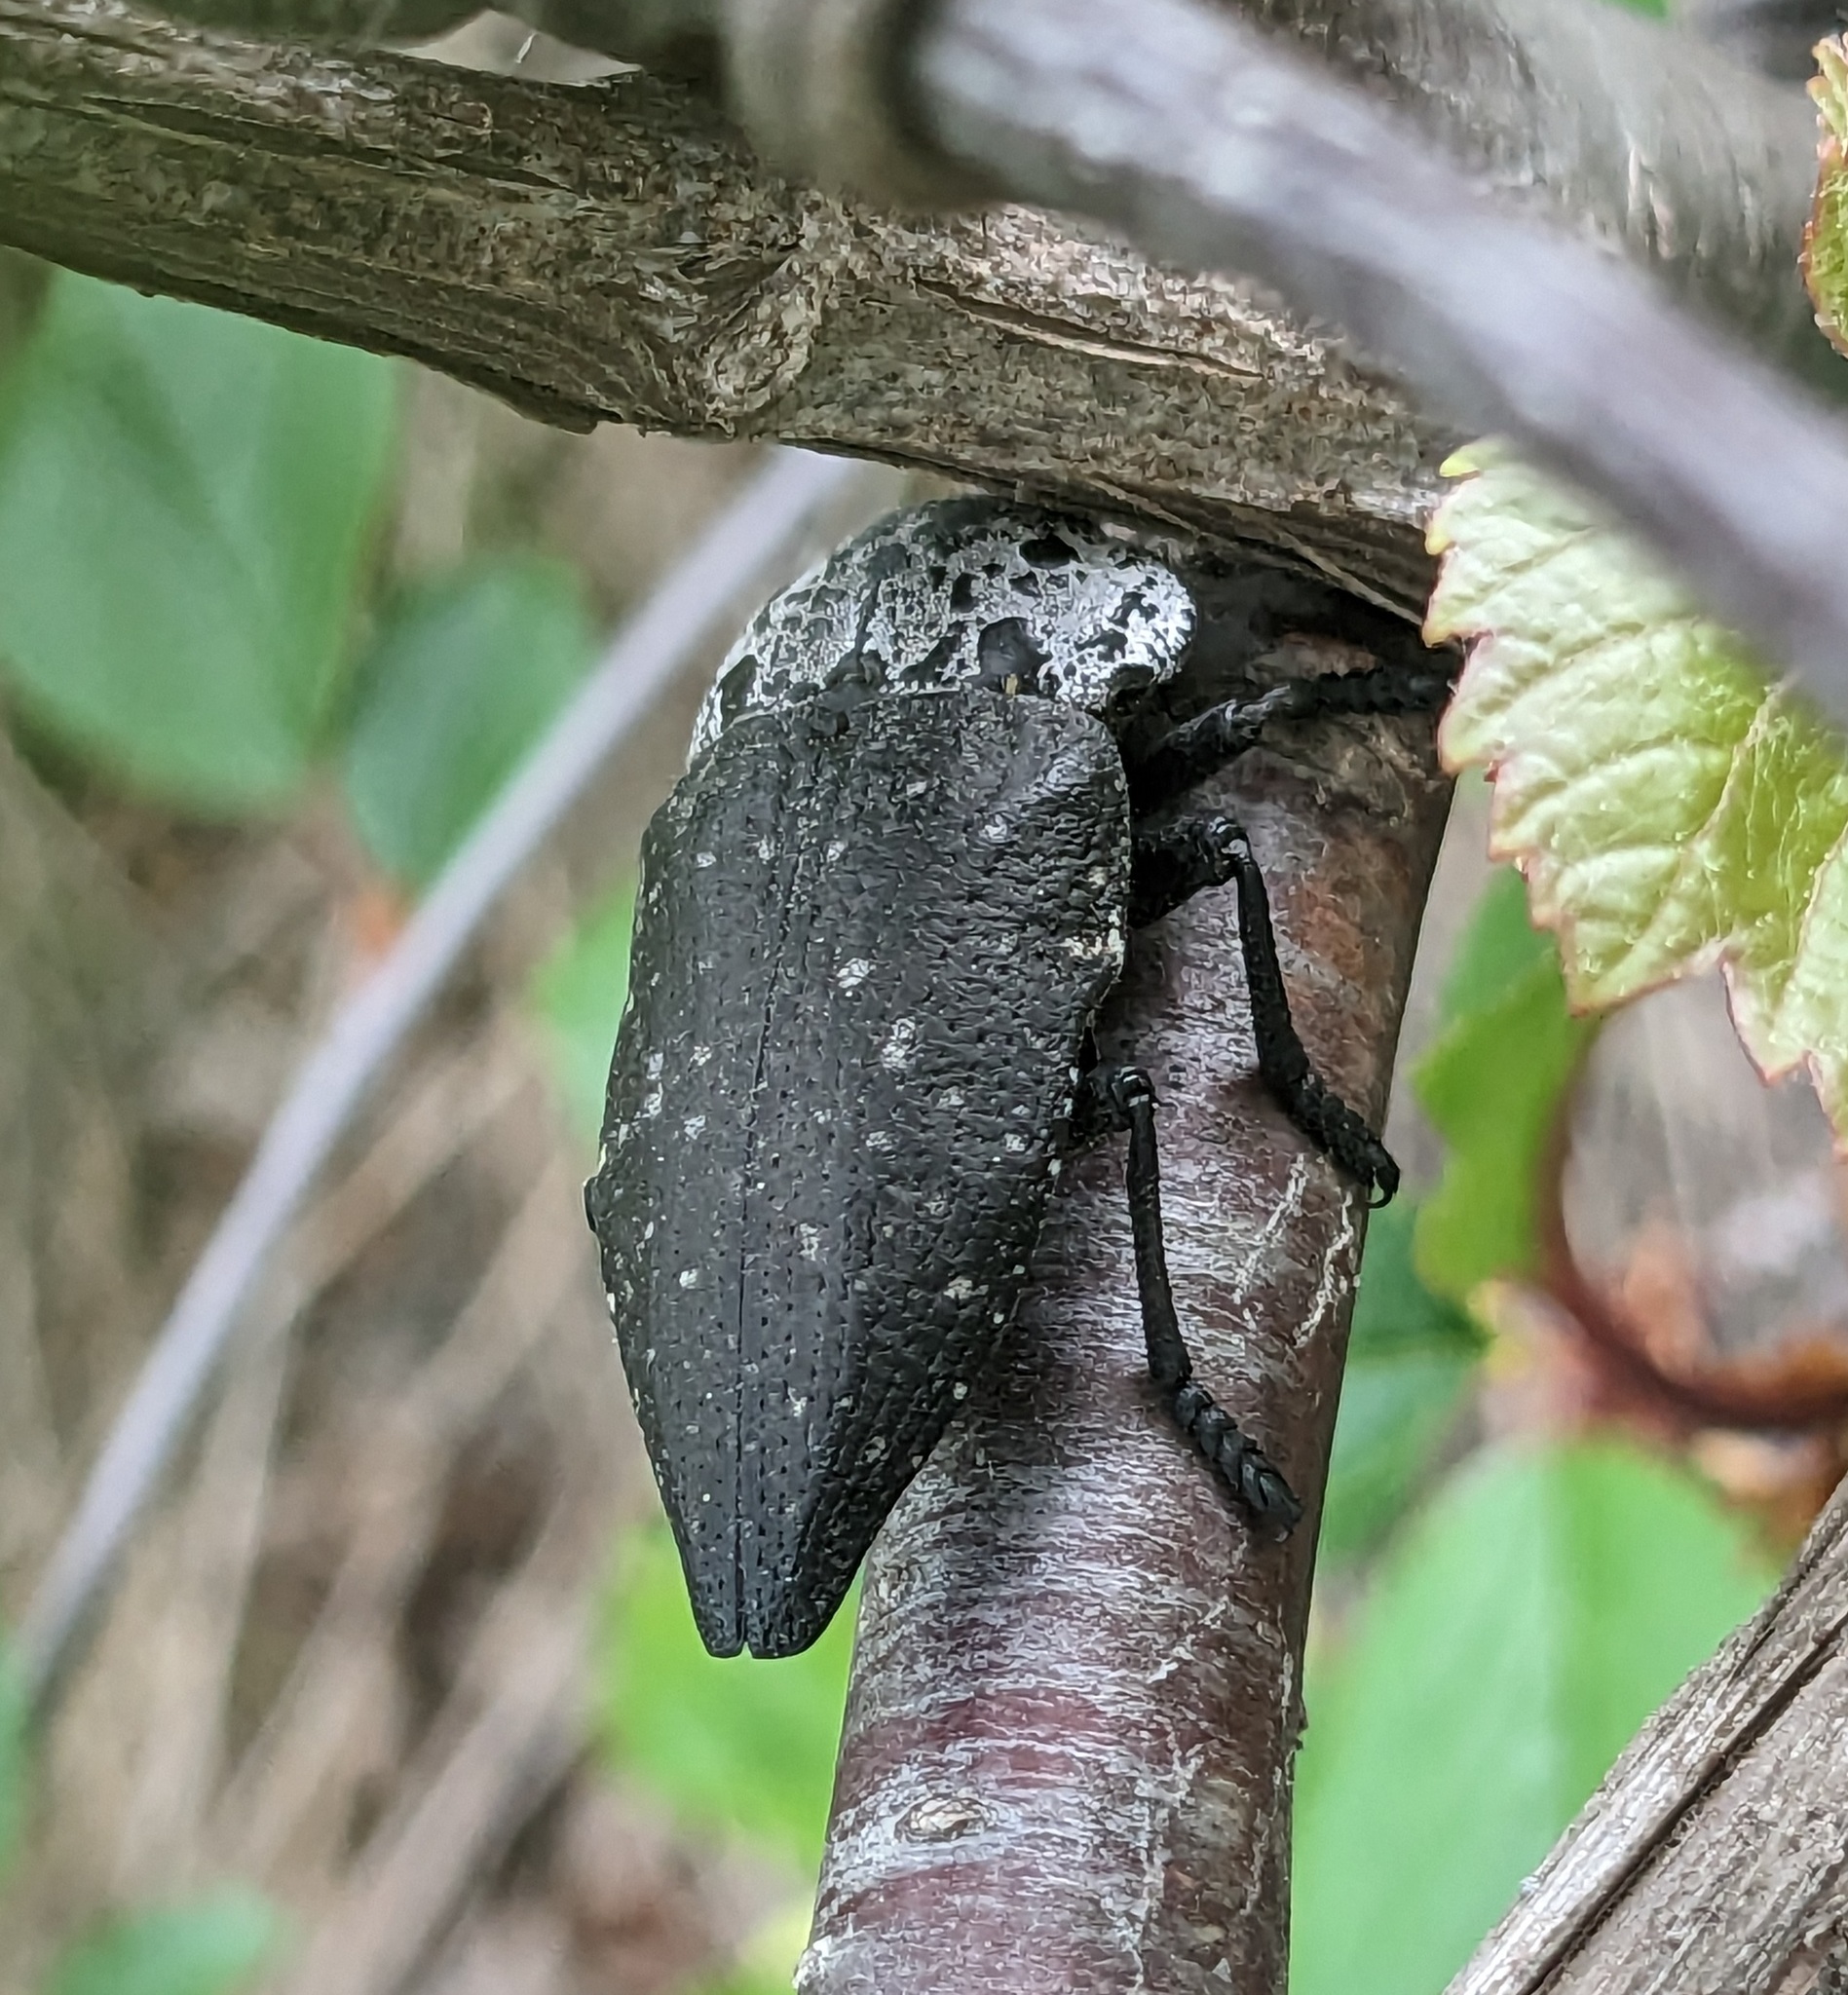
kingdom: Animalia
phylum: Arthropoda
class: Insecta
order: Coleoptera
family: Buprestidae
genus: Capnodis
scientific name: Capnodis tenebrionis
